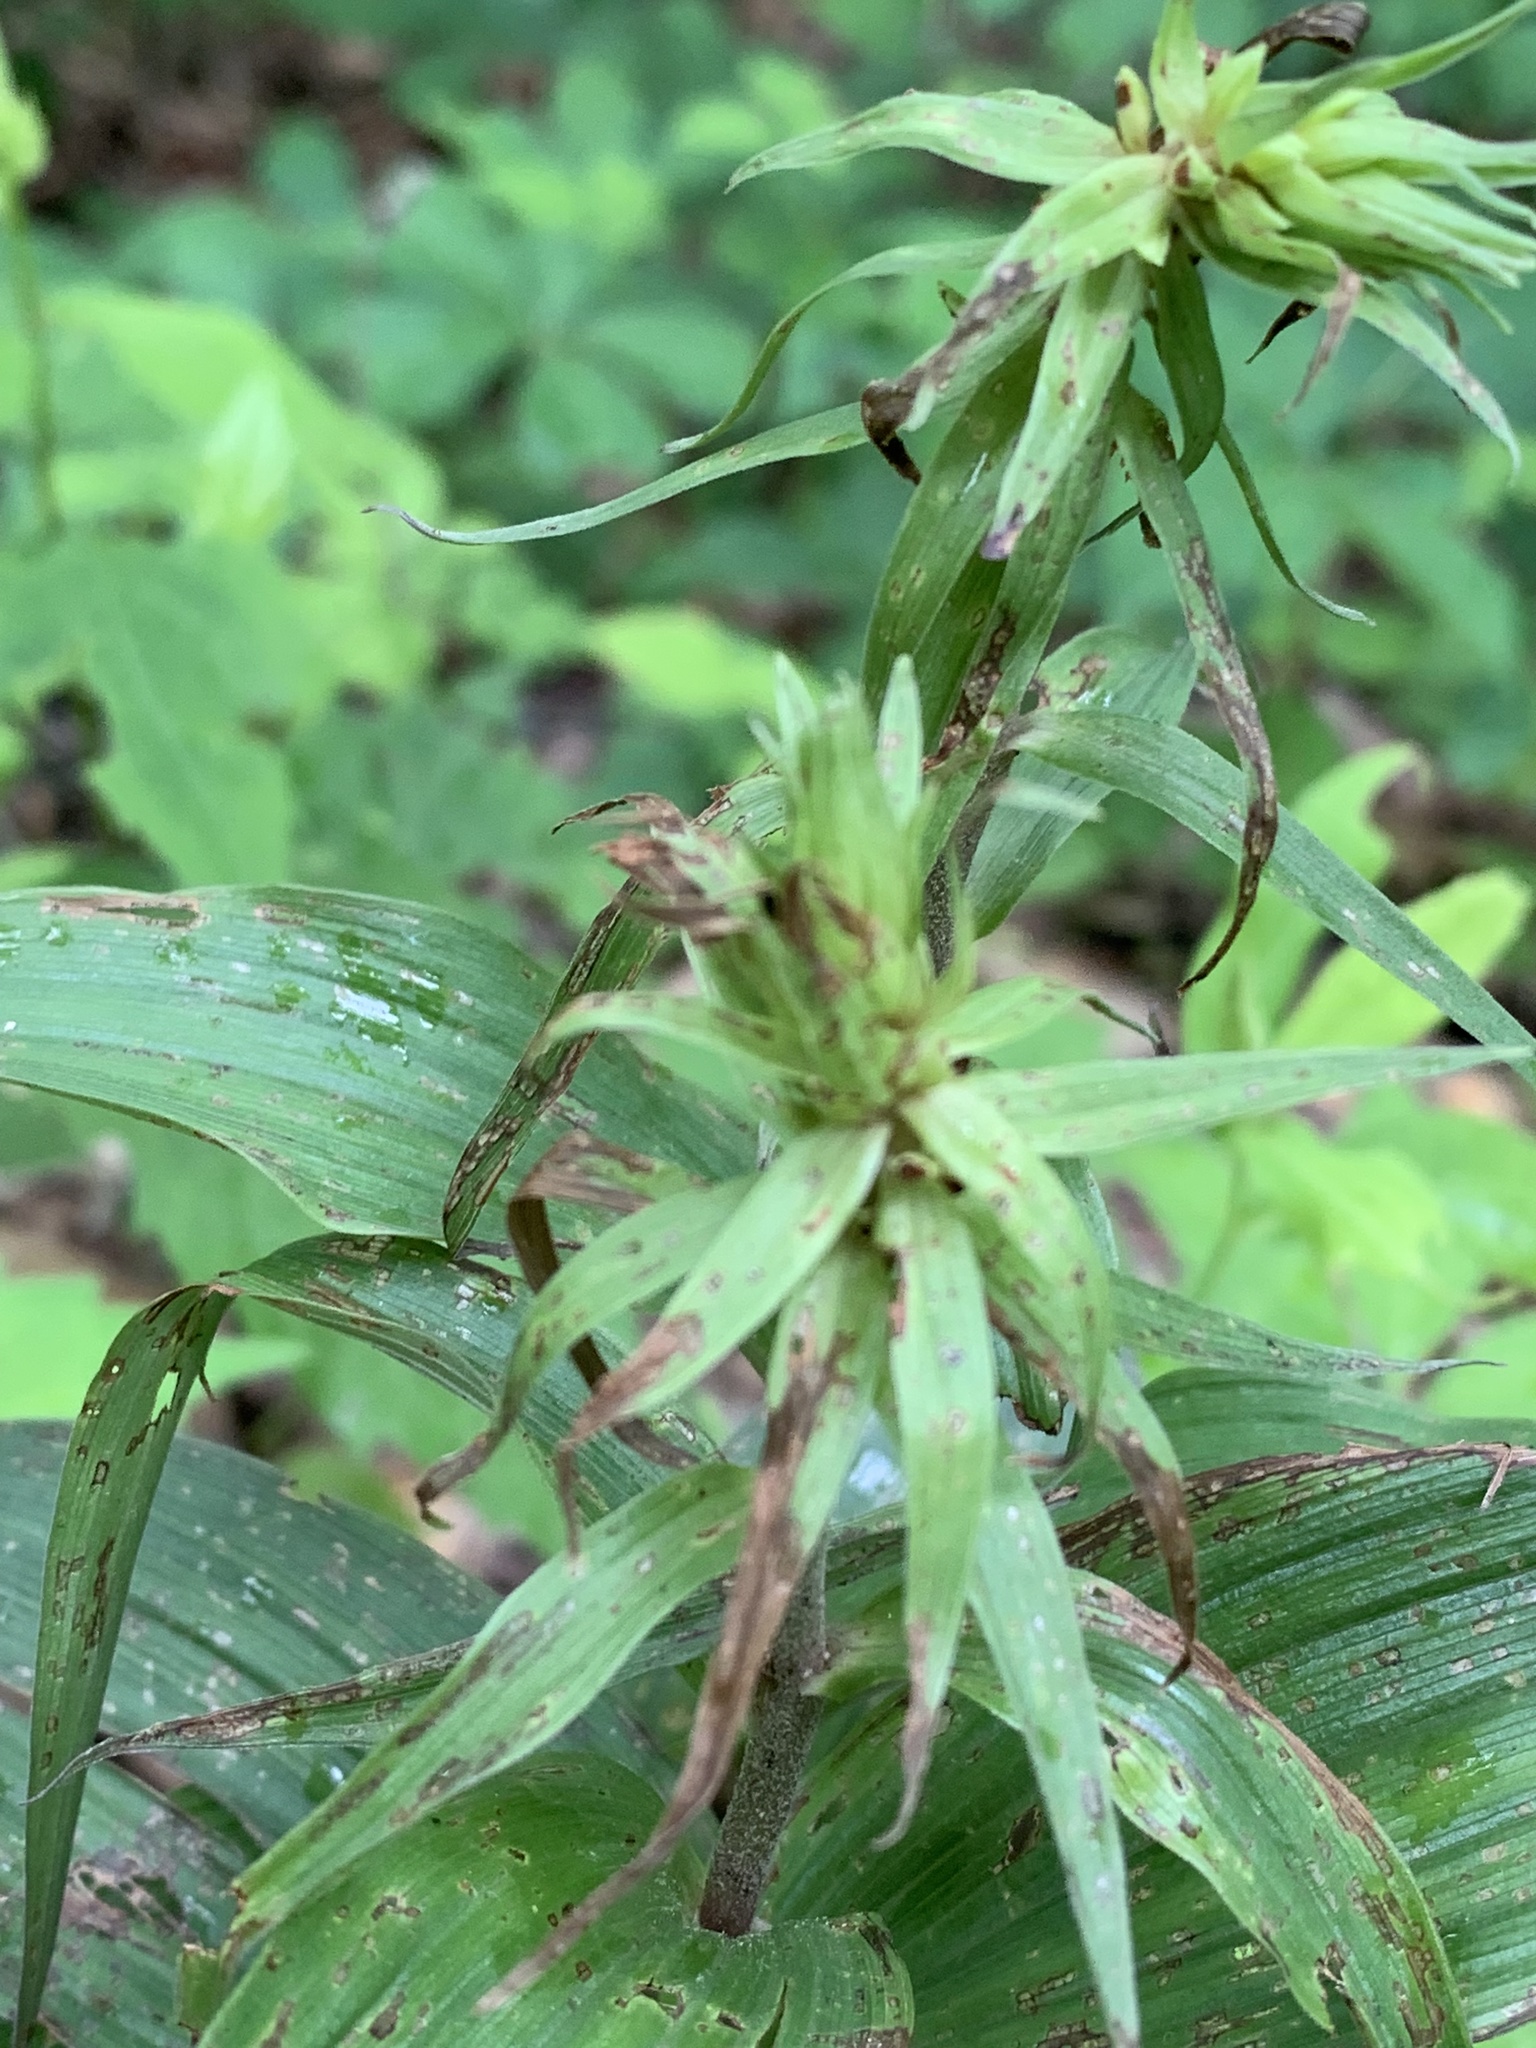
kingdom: Plantae
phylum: Tracheophyta
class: Liliopsida
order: Asparagales
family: Orchidaceae
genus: Epipactis
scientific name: Epipactis helleborine
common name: Broad-leaved helleborine
